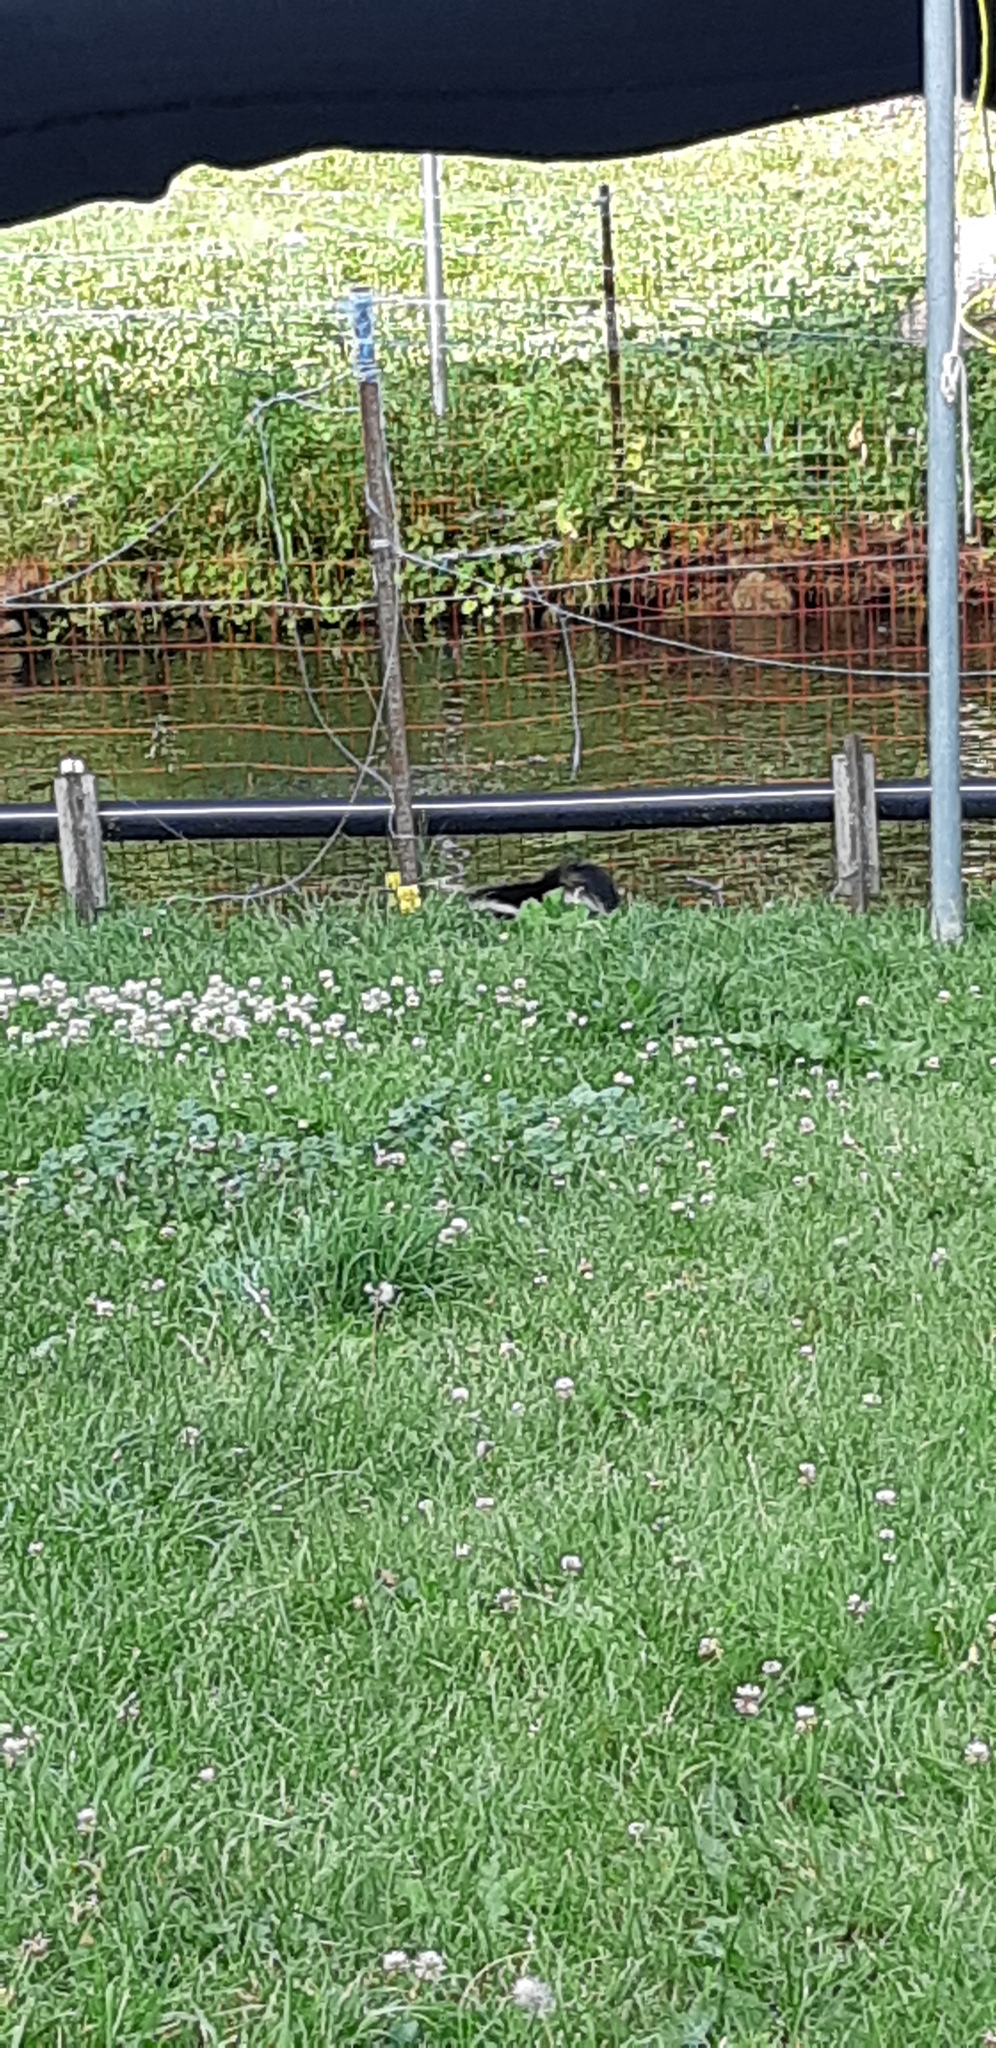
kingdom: Animalia
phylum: Chordata
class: Mammalia
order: Carnivora
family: Mephitidae
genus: Mephitis
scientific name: Mephitis mephitis
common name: Striped skunk
